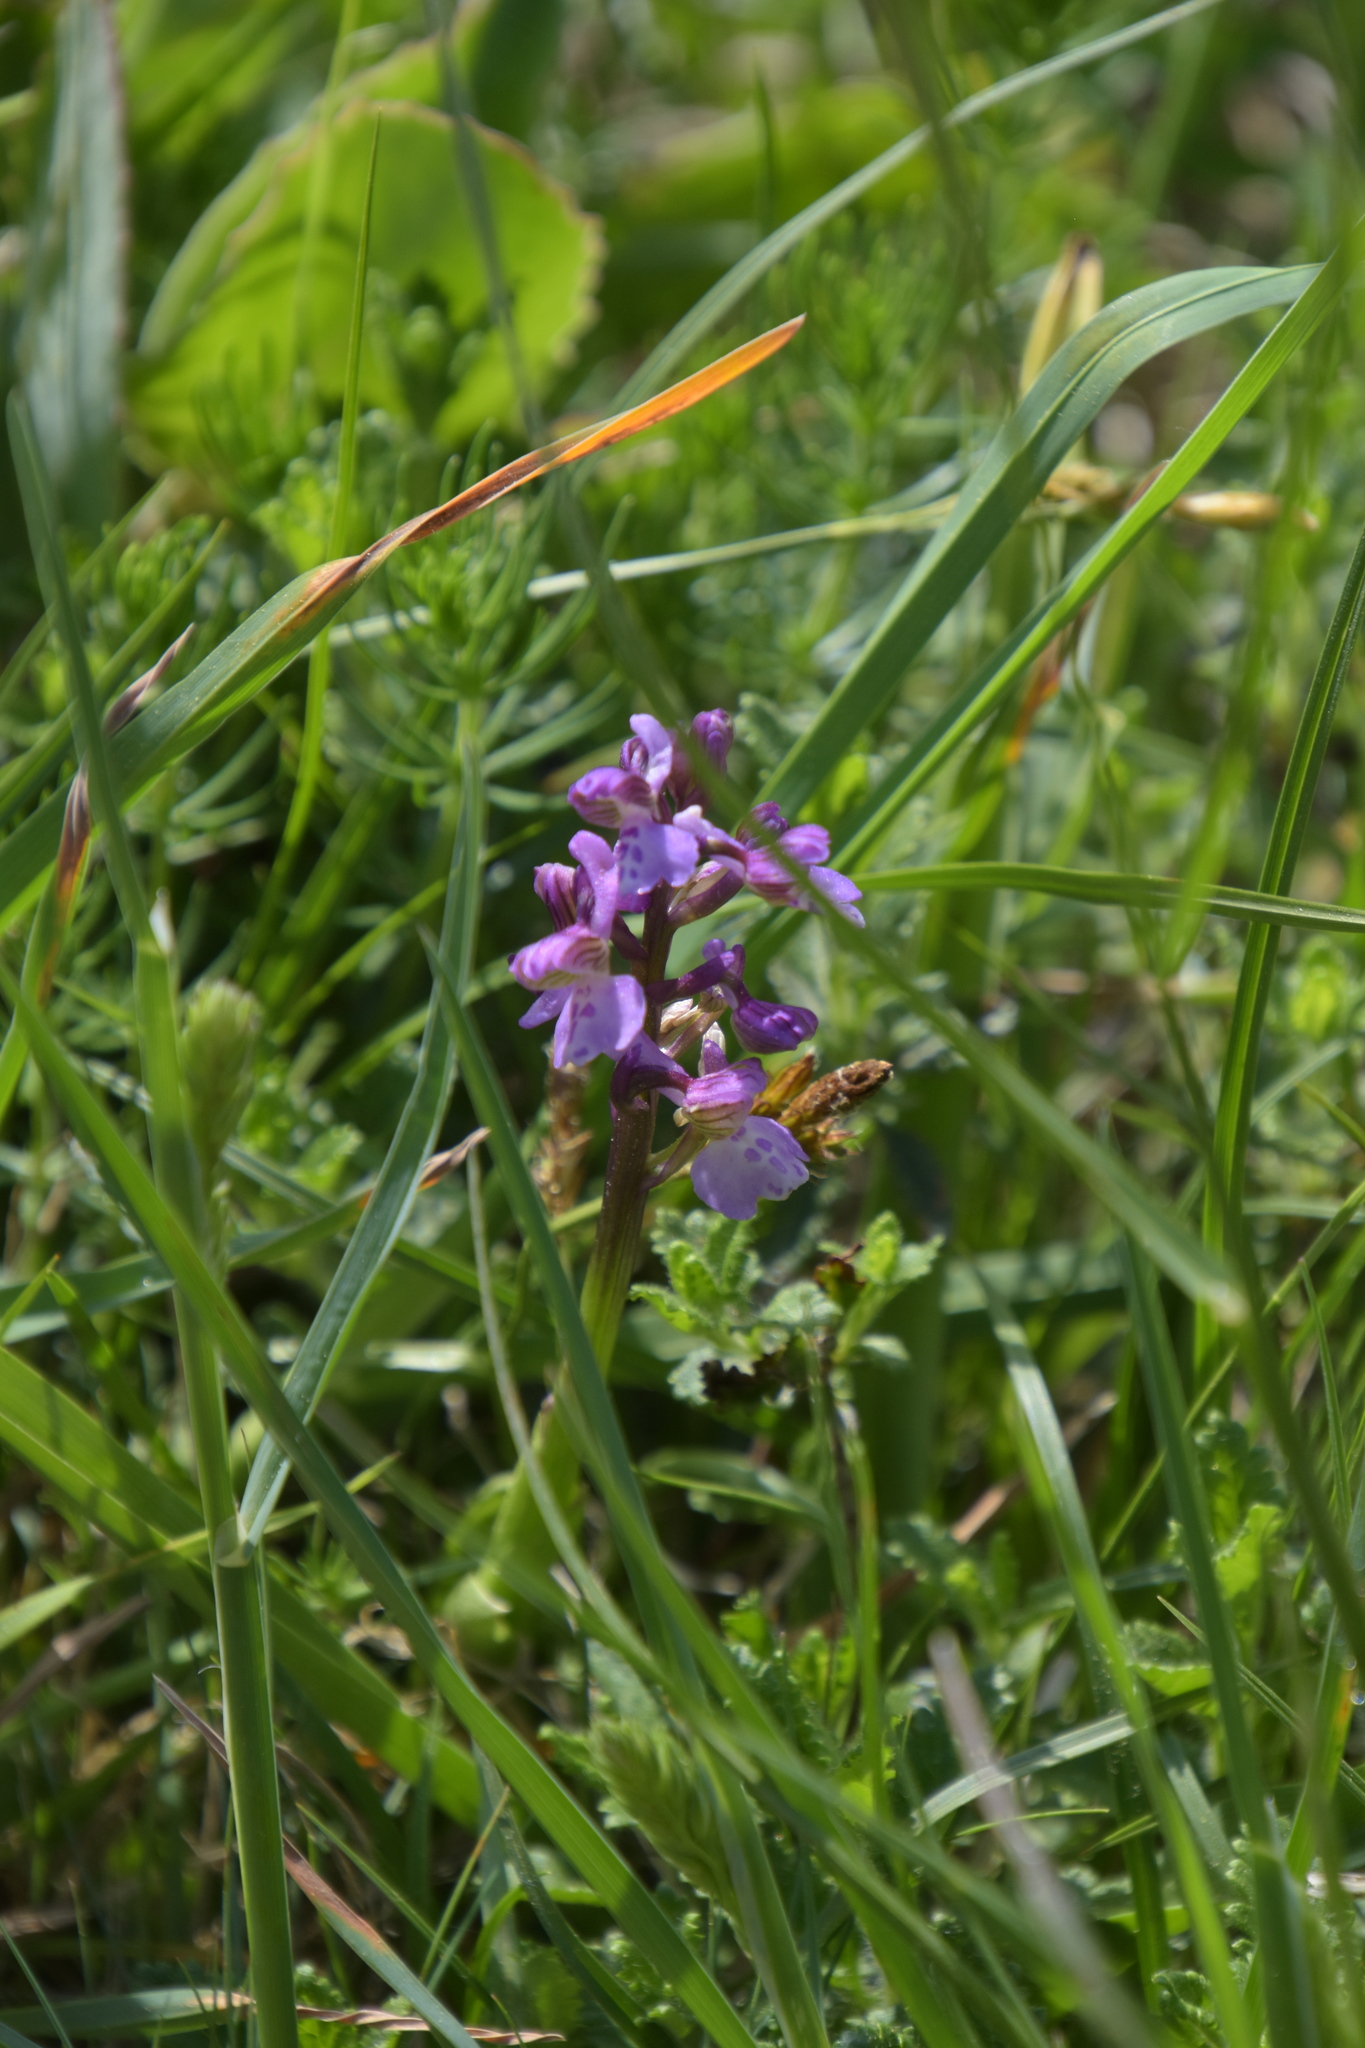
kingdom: Plantae
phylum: Tracheophyta
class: Liliopsida
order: Asparagales
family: Orchidaceae
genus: Anacamptis
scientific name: Anacamptis morio
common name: Green-winged orchid
